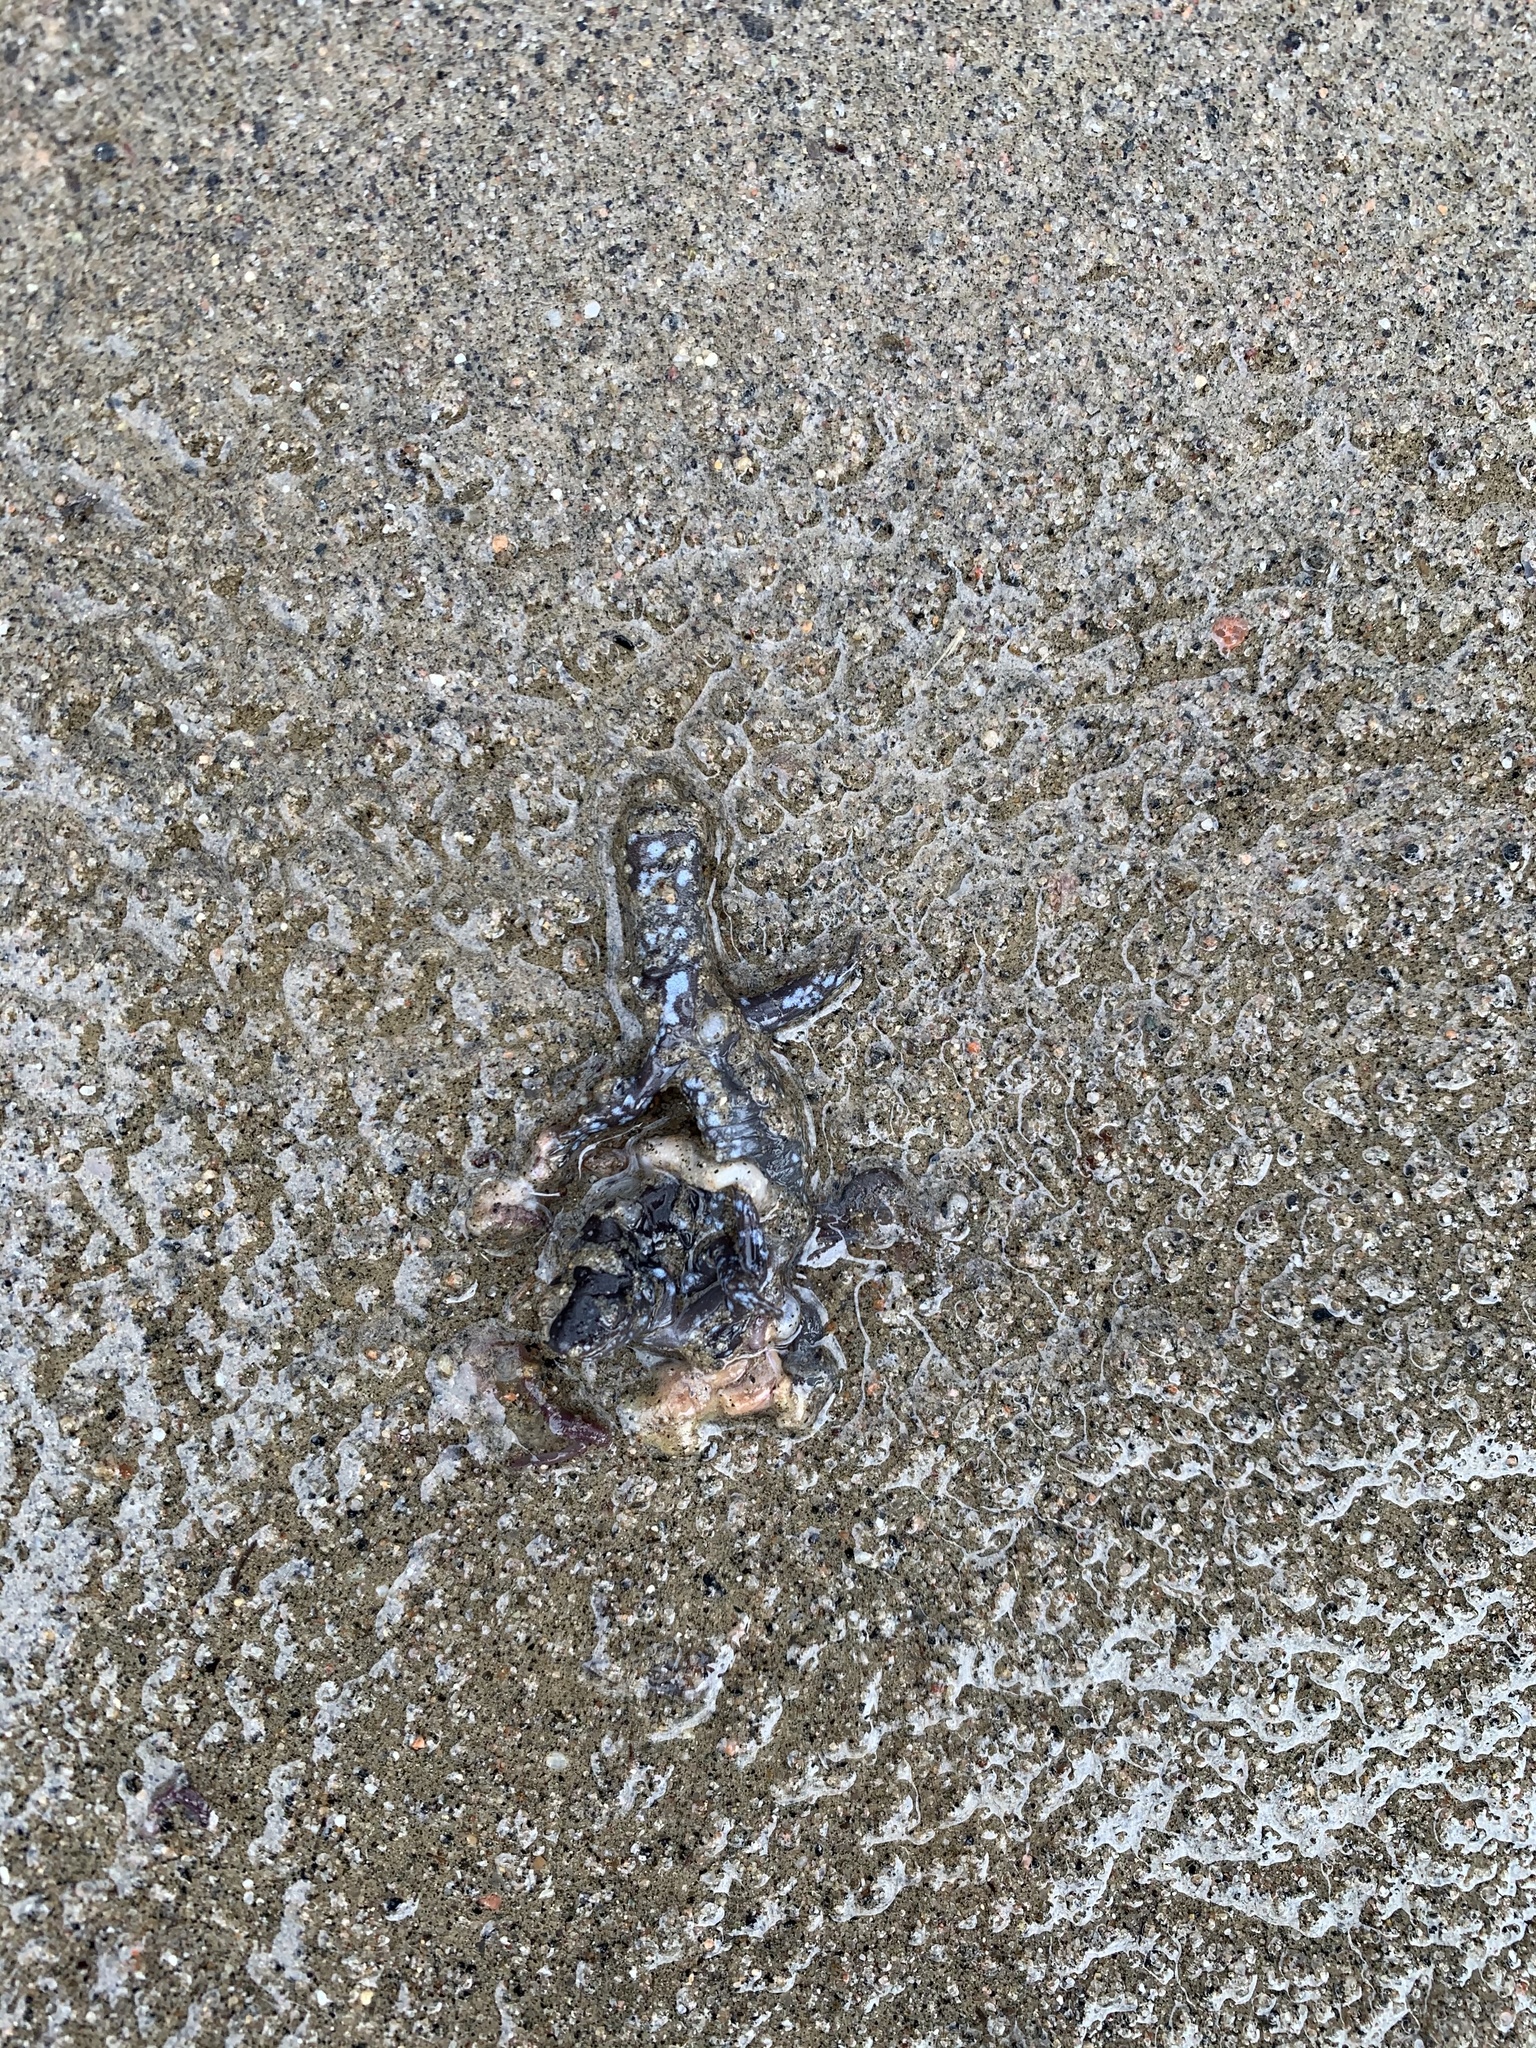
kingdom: Animalia
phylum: Chordata
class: Amphibia
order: Caudata
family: Ambystomatidae
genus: Ambystoma
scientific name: Ambystoma laterale
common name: Blue-spotted salamander
